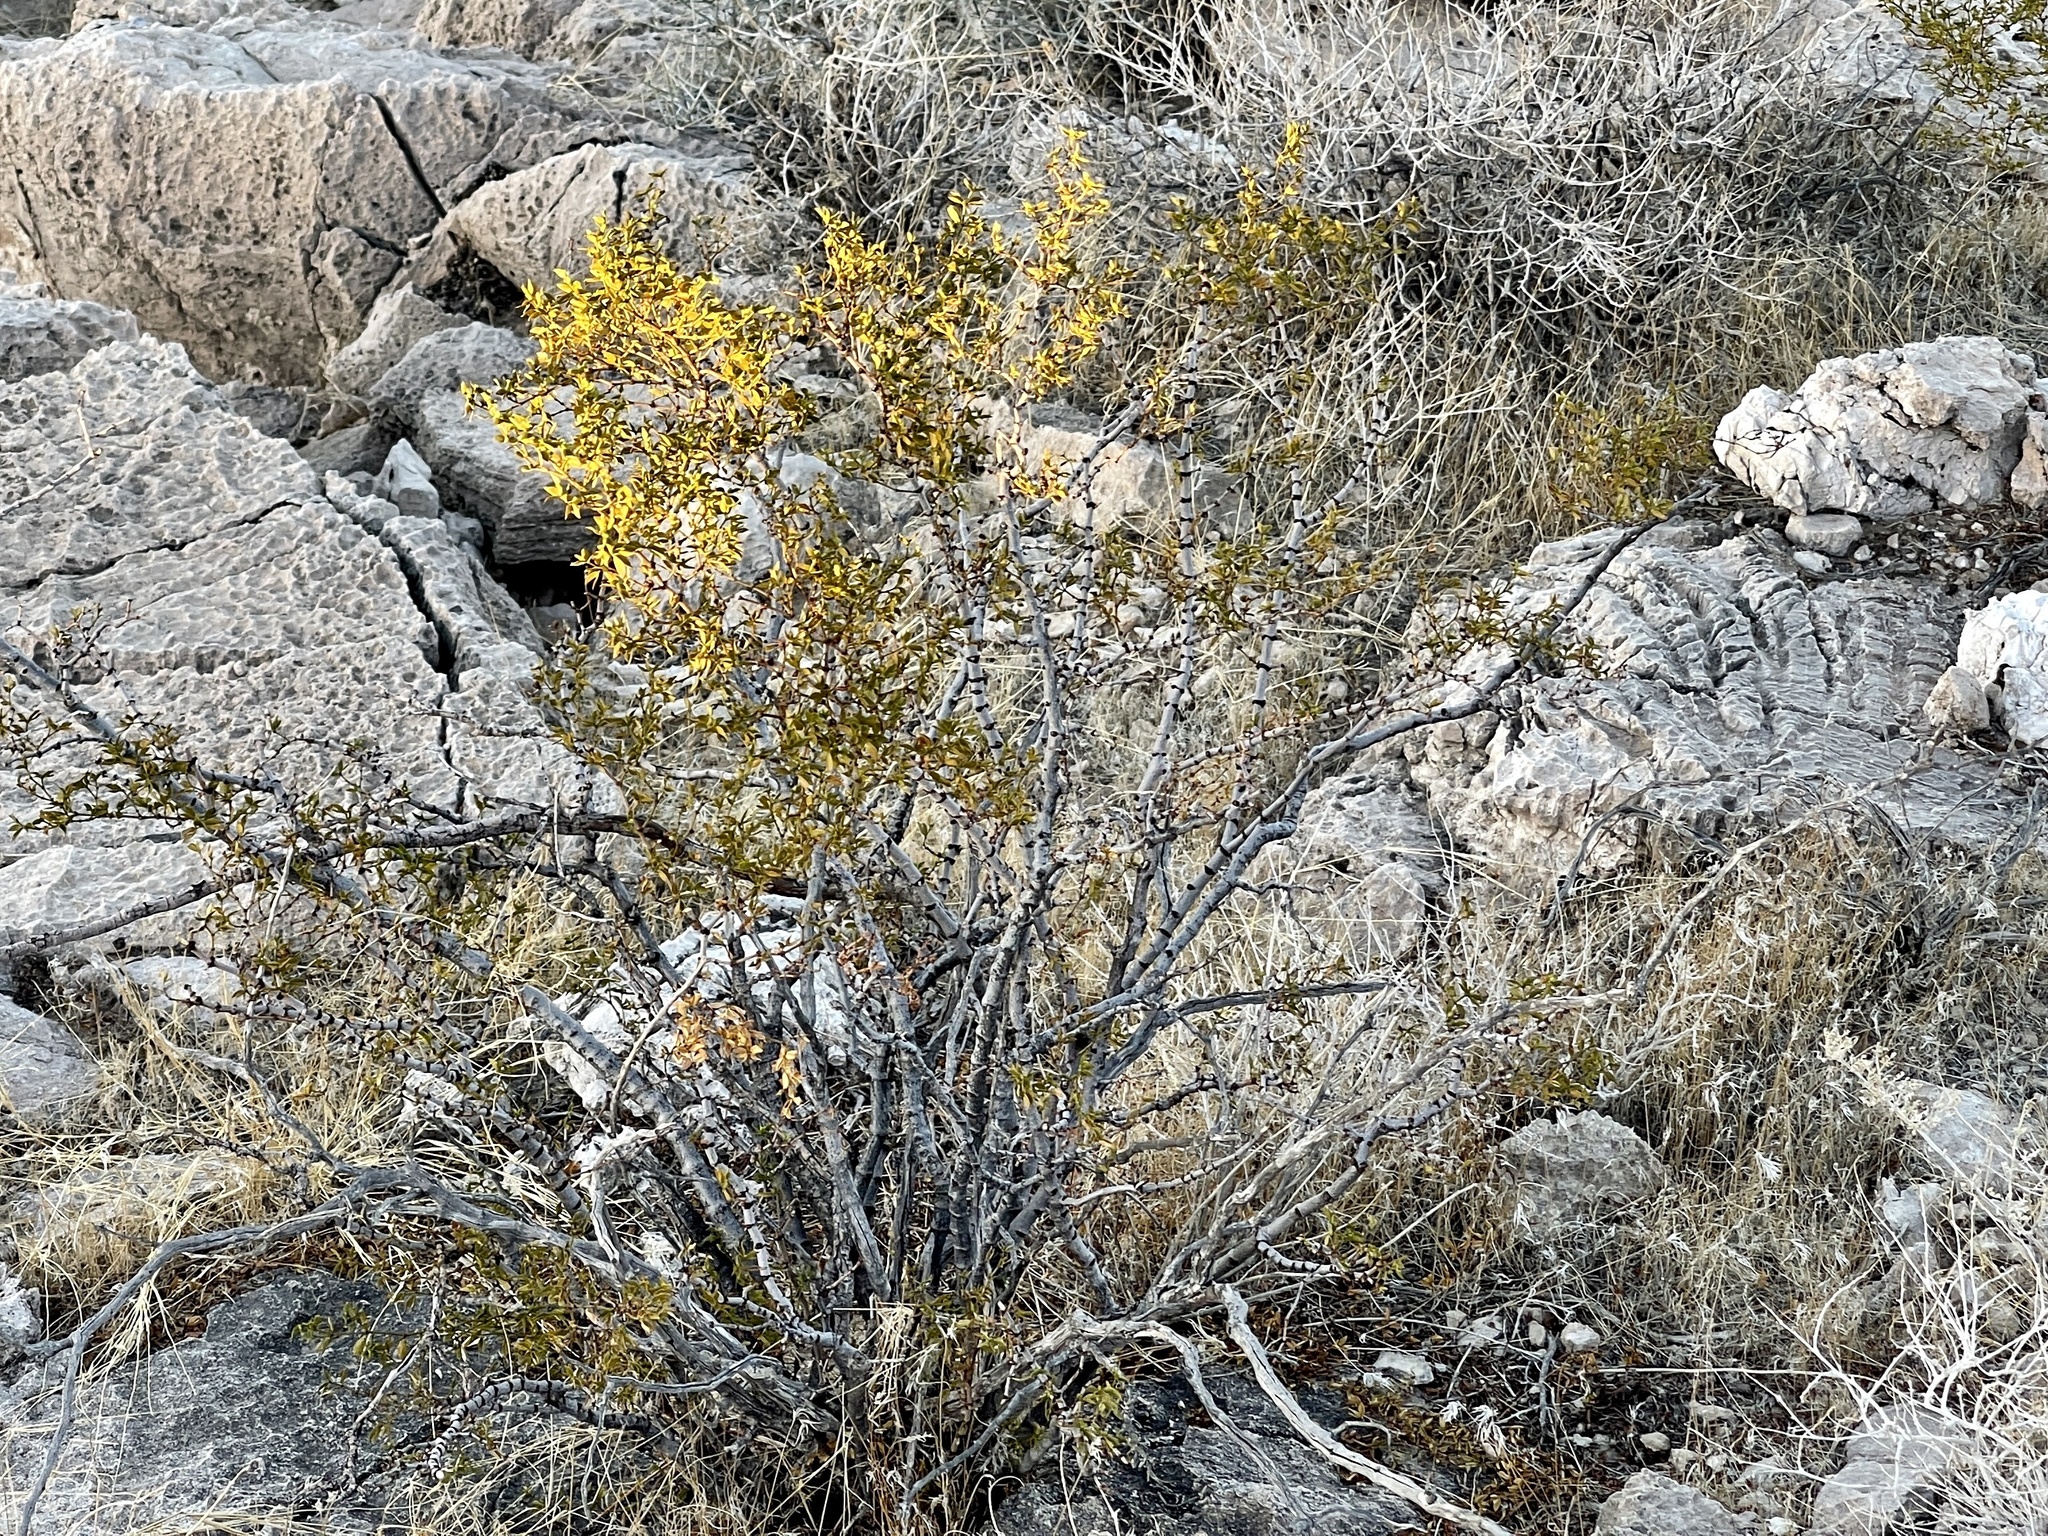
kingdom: Plantae
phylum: Tracheophyta
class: Magnoliopsida
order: Zygophyllales
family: Zygophyllaceae
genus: Larrea
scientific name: Larrea tridentata
